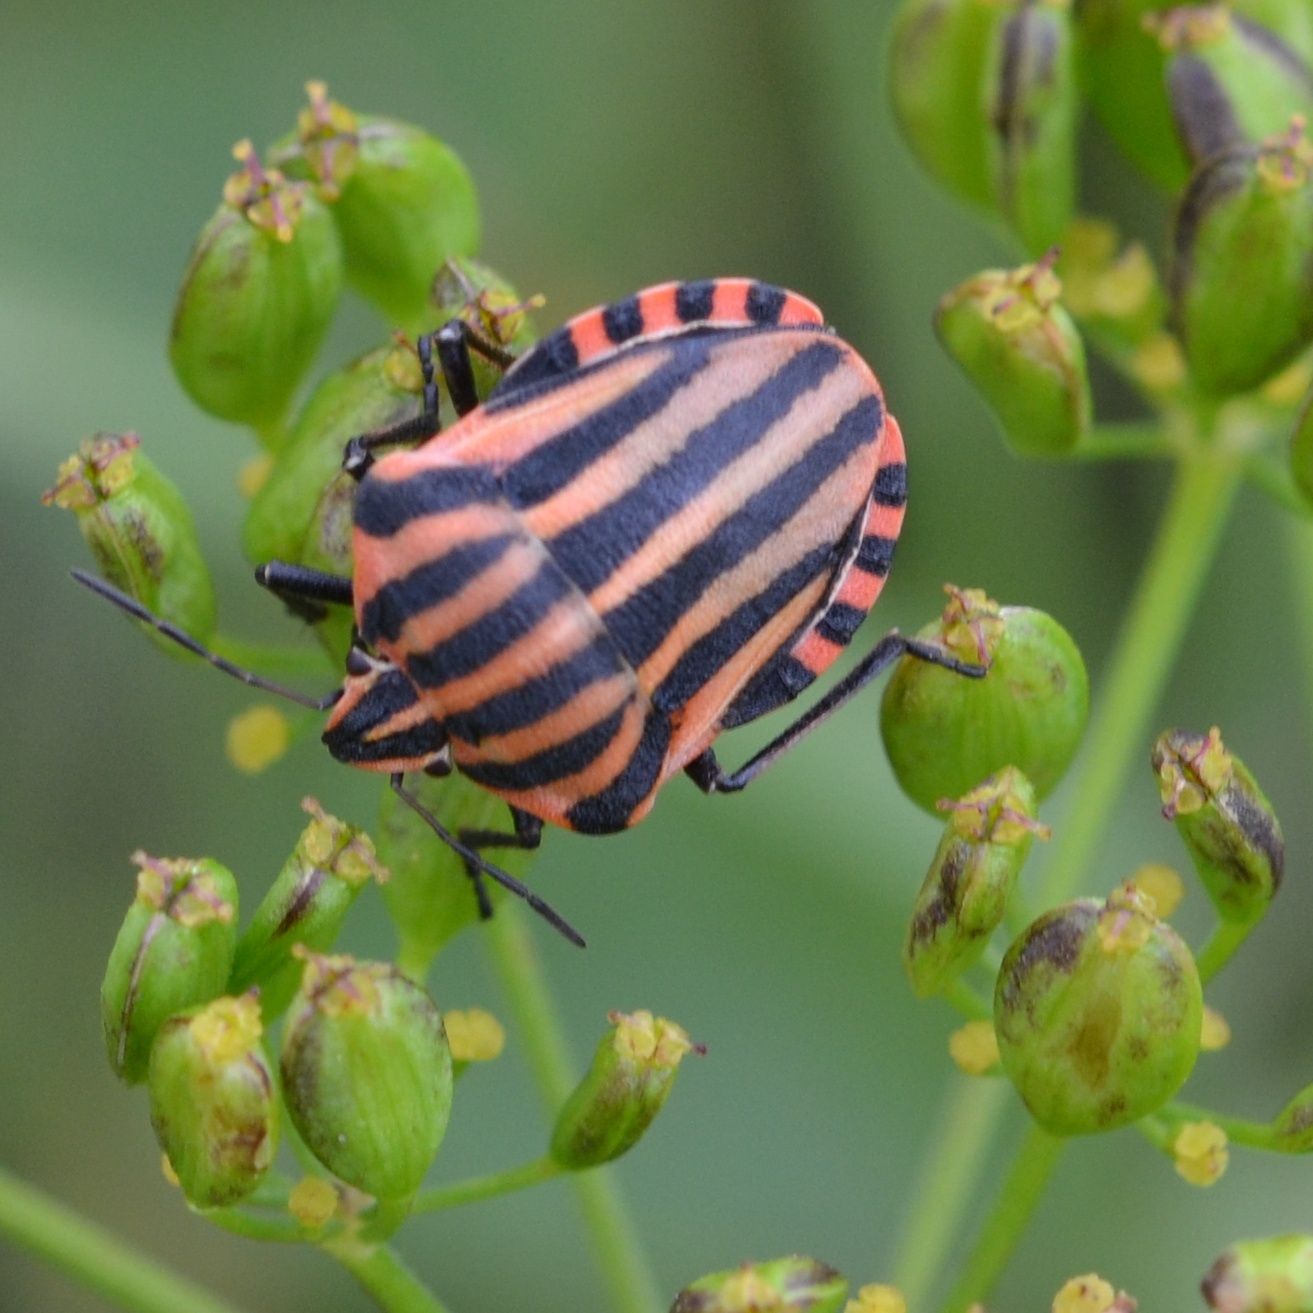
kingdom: Animalia
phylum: Arthropoda
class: Insecta
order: Hemiptera
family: Pentatomidae
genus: Graphosoma
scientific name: Graphosoma italicum
